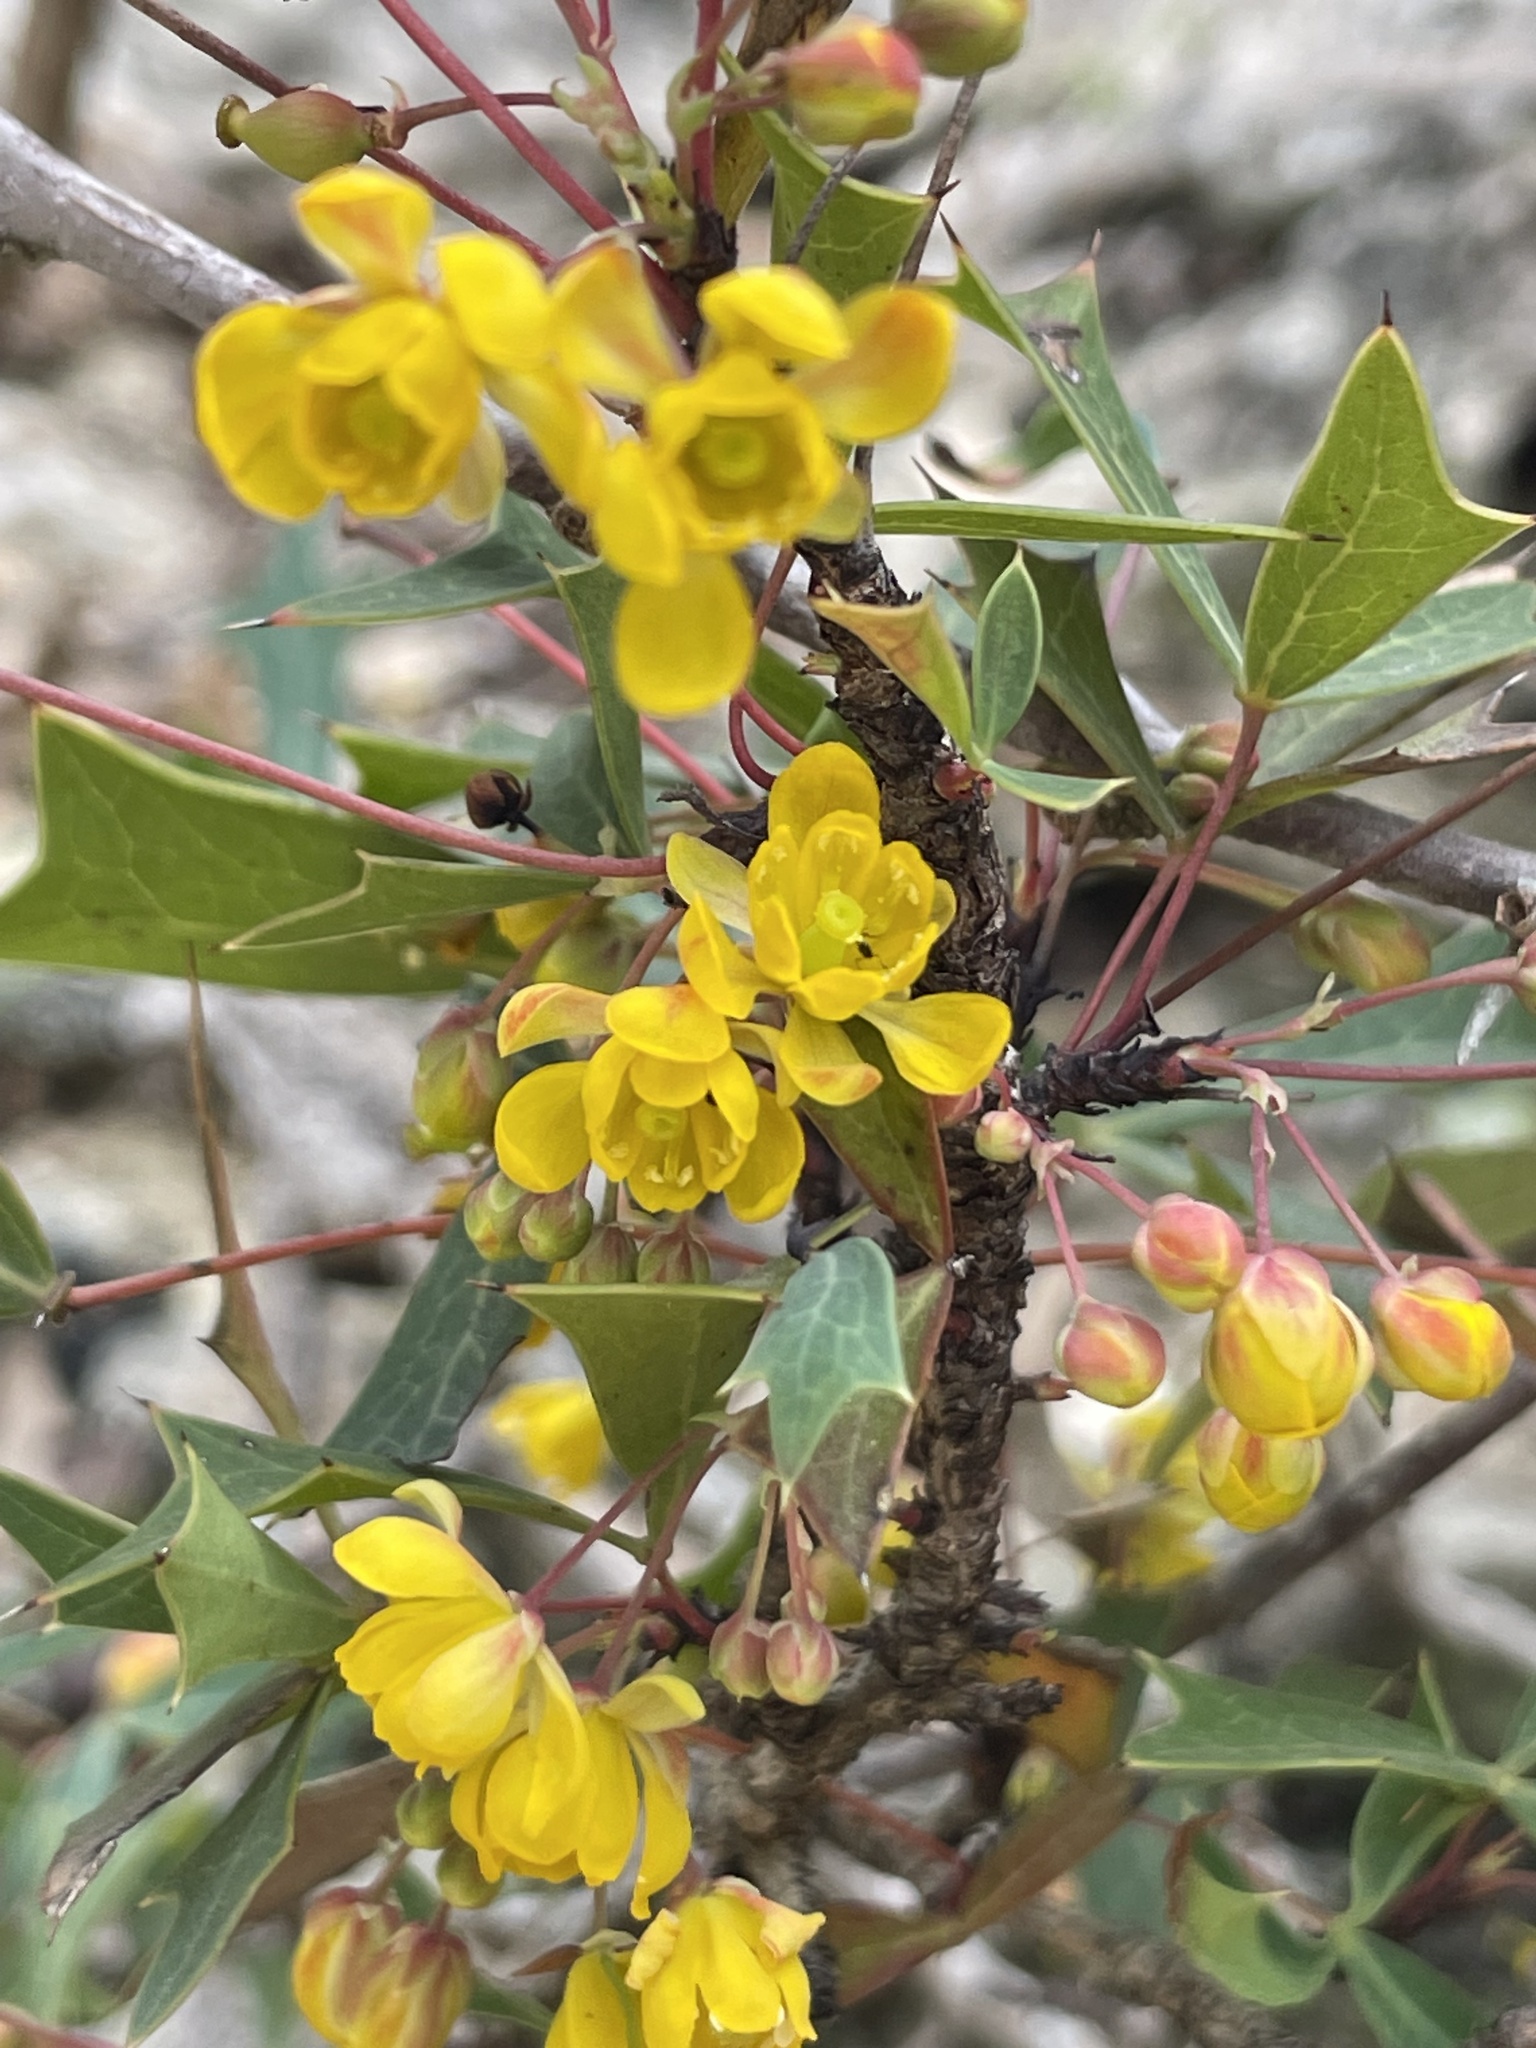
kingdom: Plantae
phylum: Tracheophyta
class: Magnoliopsida
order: Ranunculales
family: Berberidaceae
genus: Alloberberis
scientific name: Alloberberis trifoliolata
